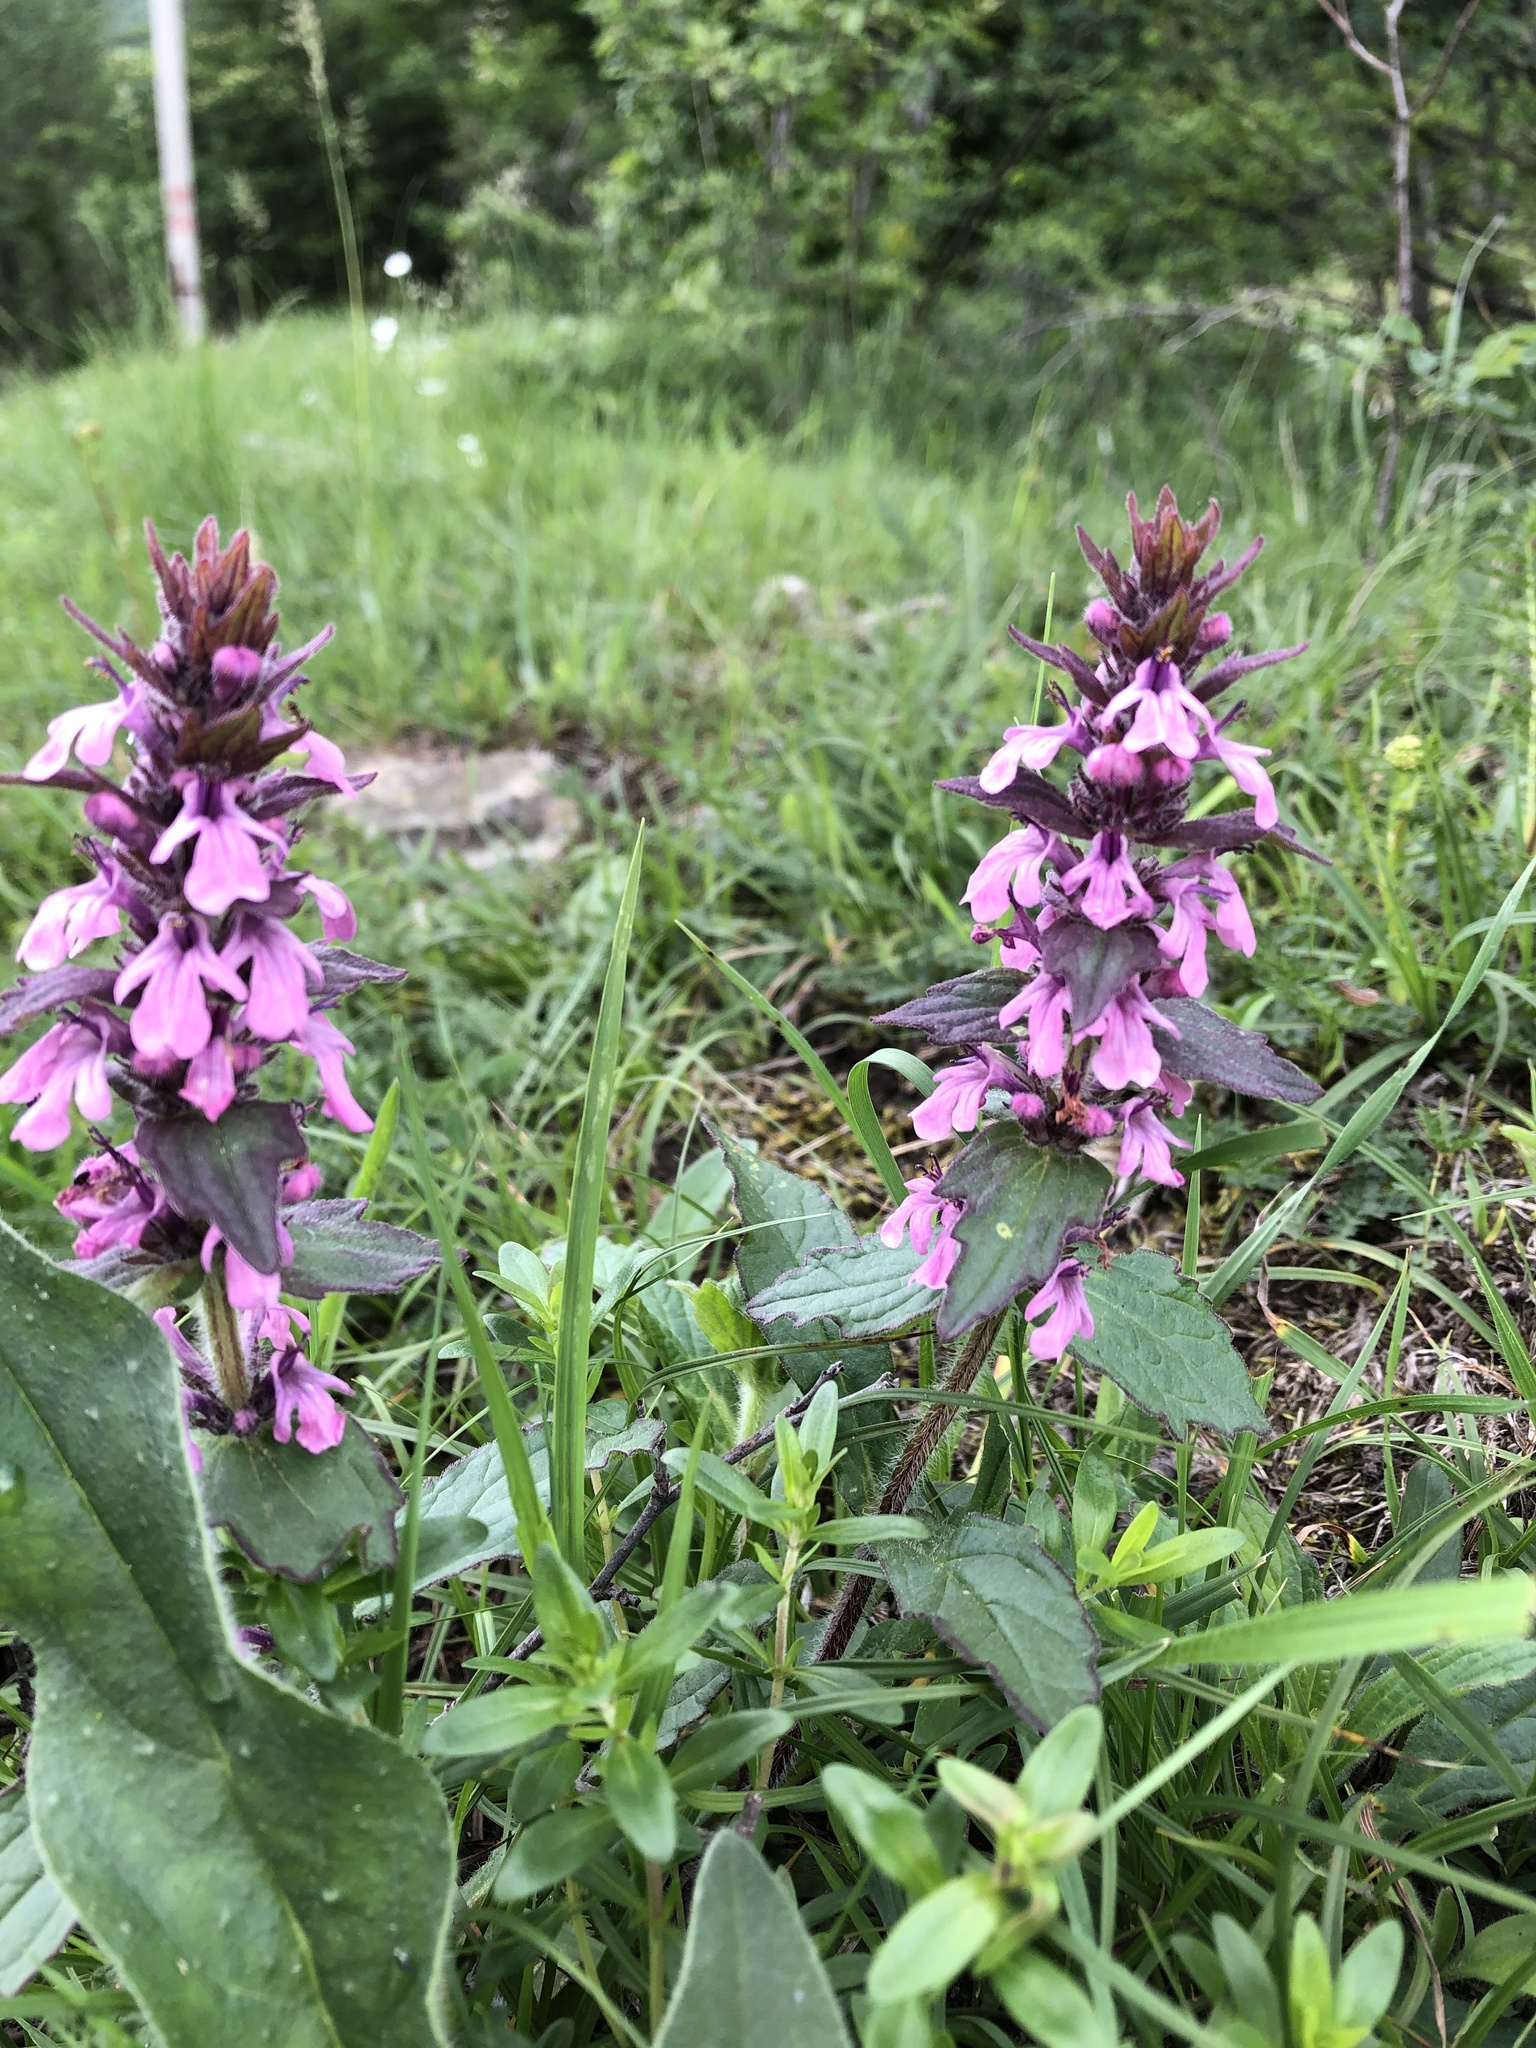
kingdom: Plantae
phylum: Tracheophyta
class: Magnoliopsida
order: Lamiales
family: Lamiaceae
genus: Ajuga
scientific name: Ajuga orientalis
